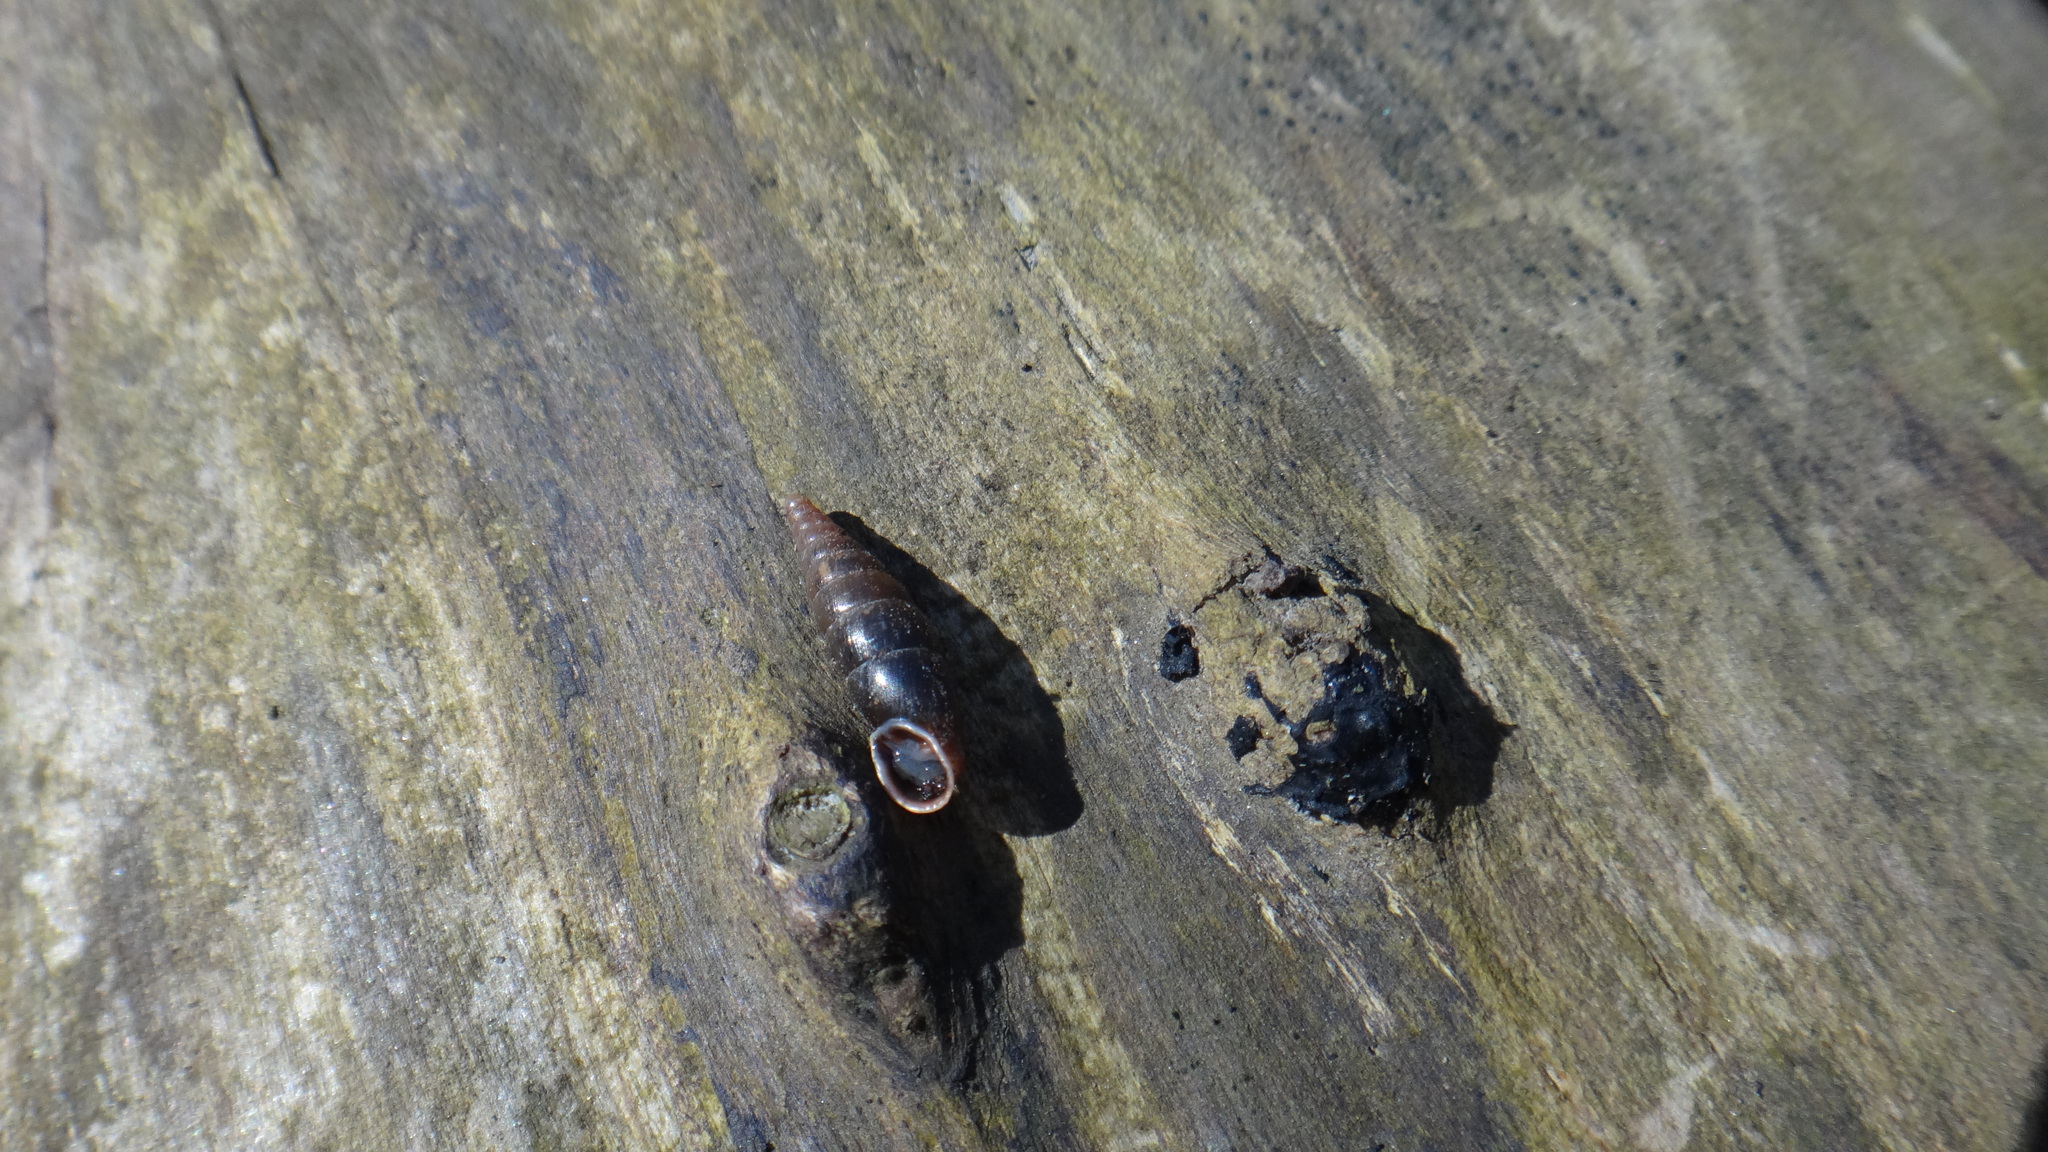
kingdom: Animalia
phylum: Mollusca
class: Gastropoda
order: Stylommatophora
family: Clausiliidae
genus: Cochlodina
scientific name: Cochlodina laminata
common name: Plaited door snail
